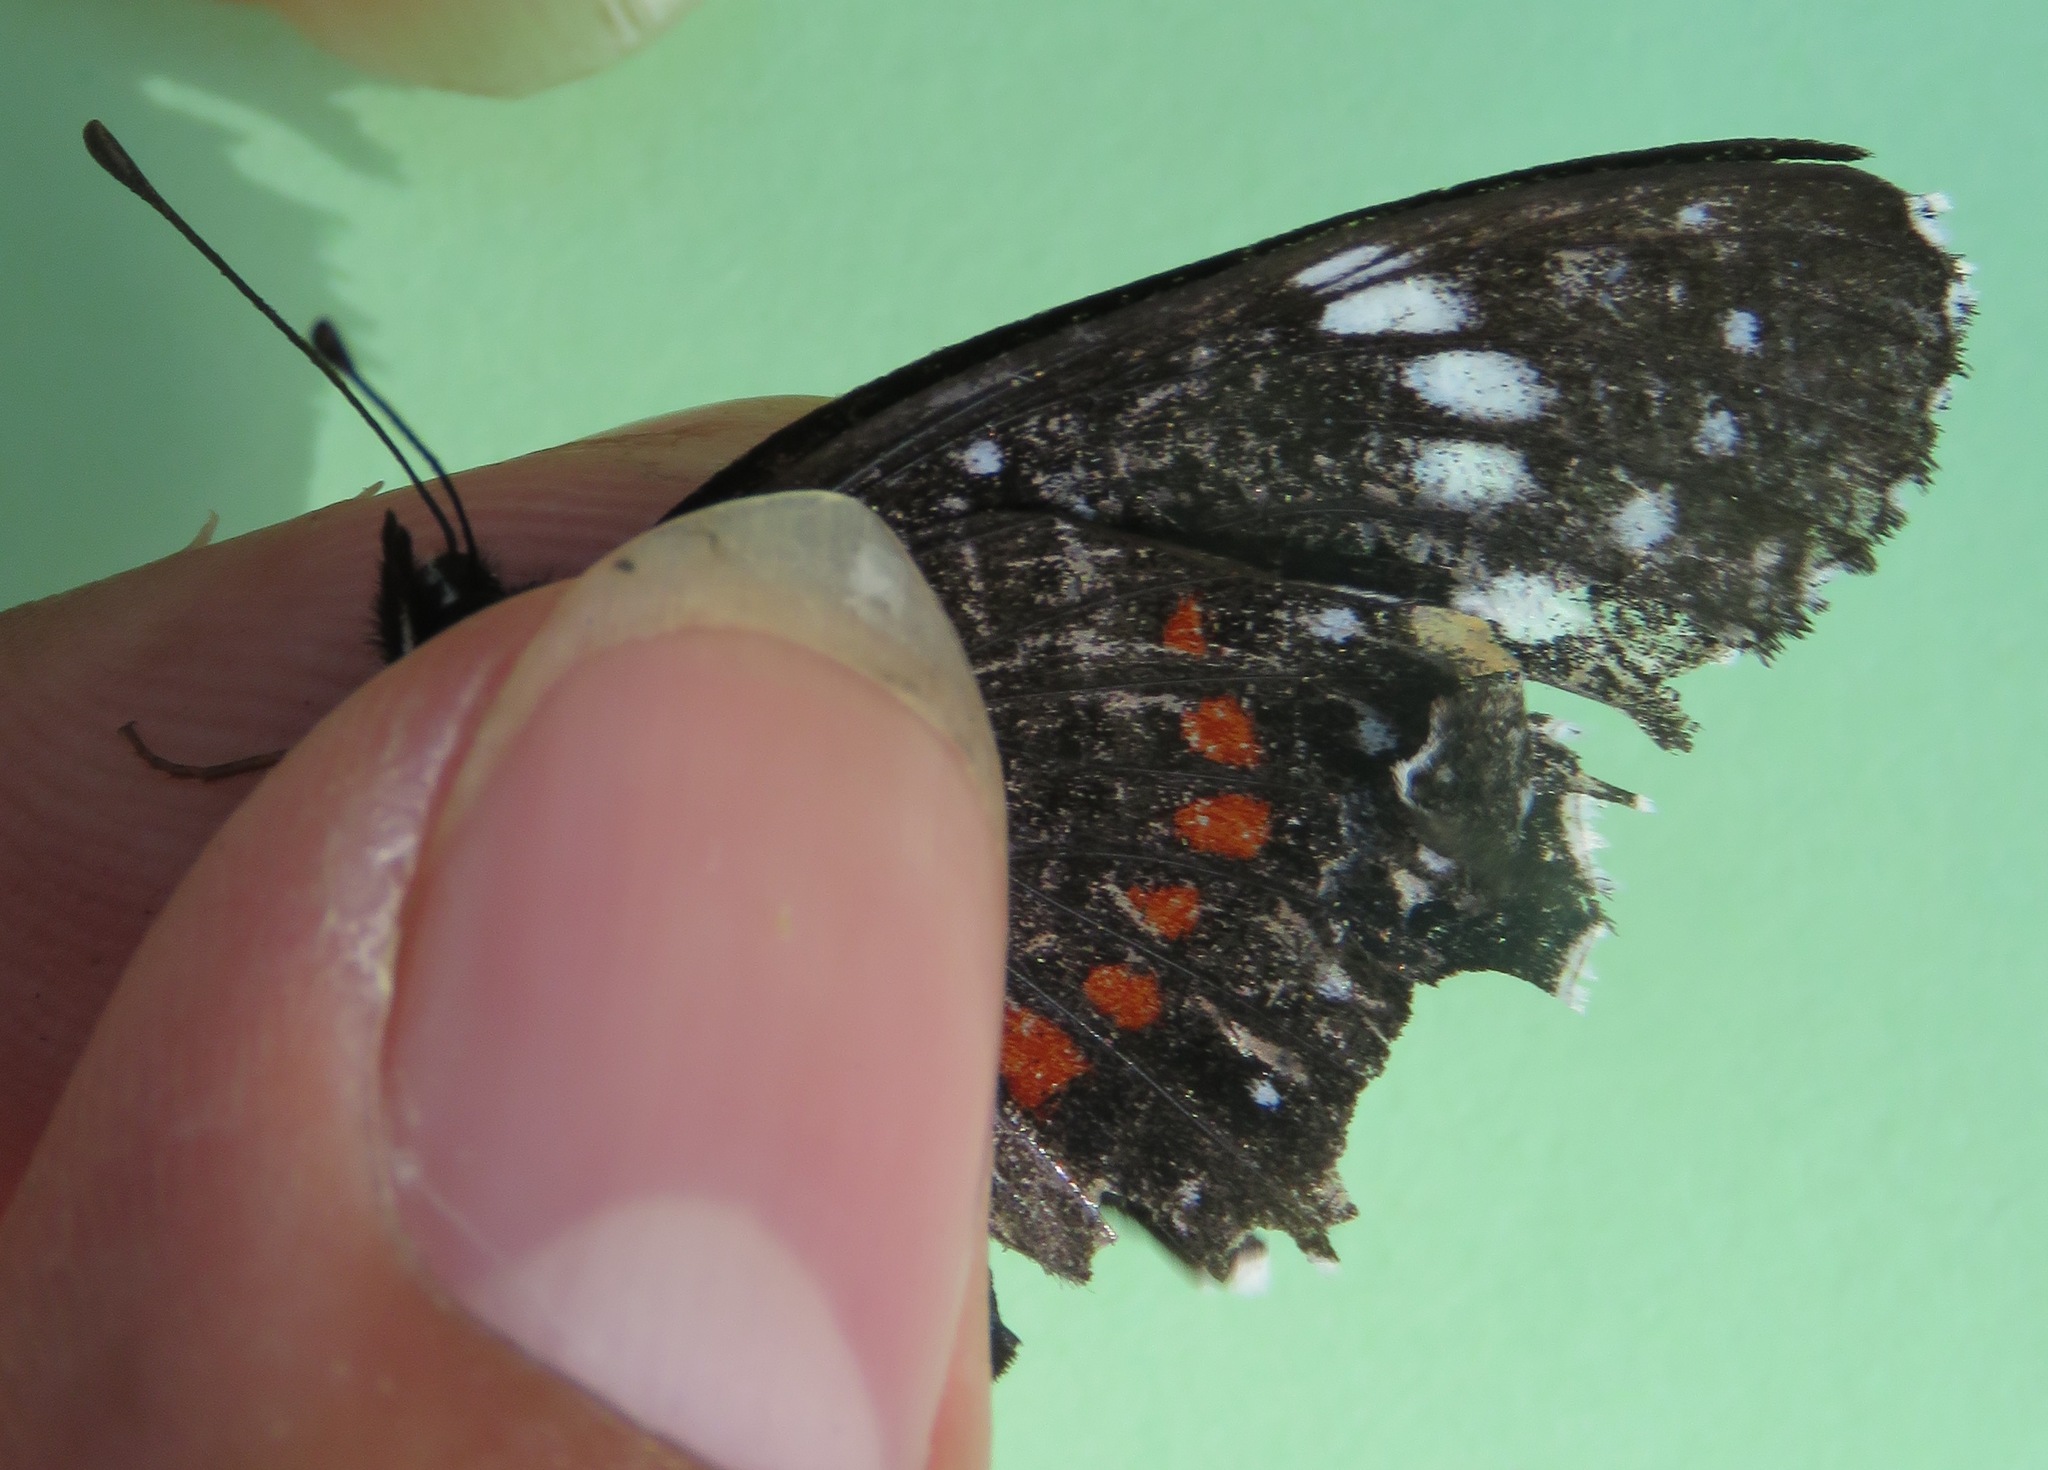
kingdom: Animalia
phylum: Arthropoda
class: Insecta
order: Lepidoptera
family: Nymphalidae
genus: Chlosyne
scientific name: Chlosyne hippodrome
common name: Simple patch
